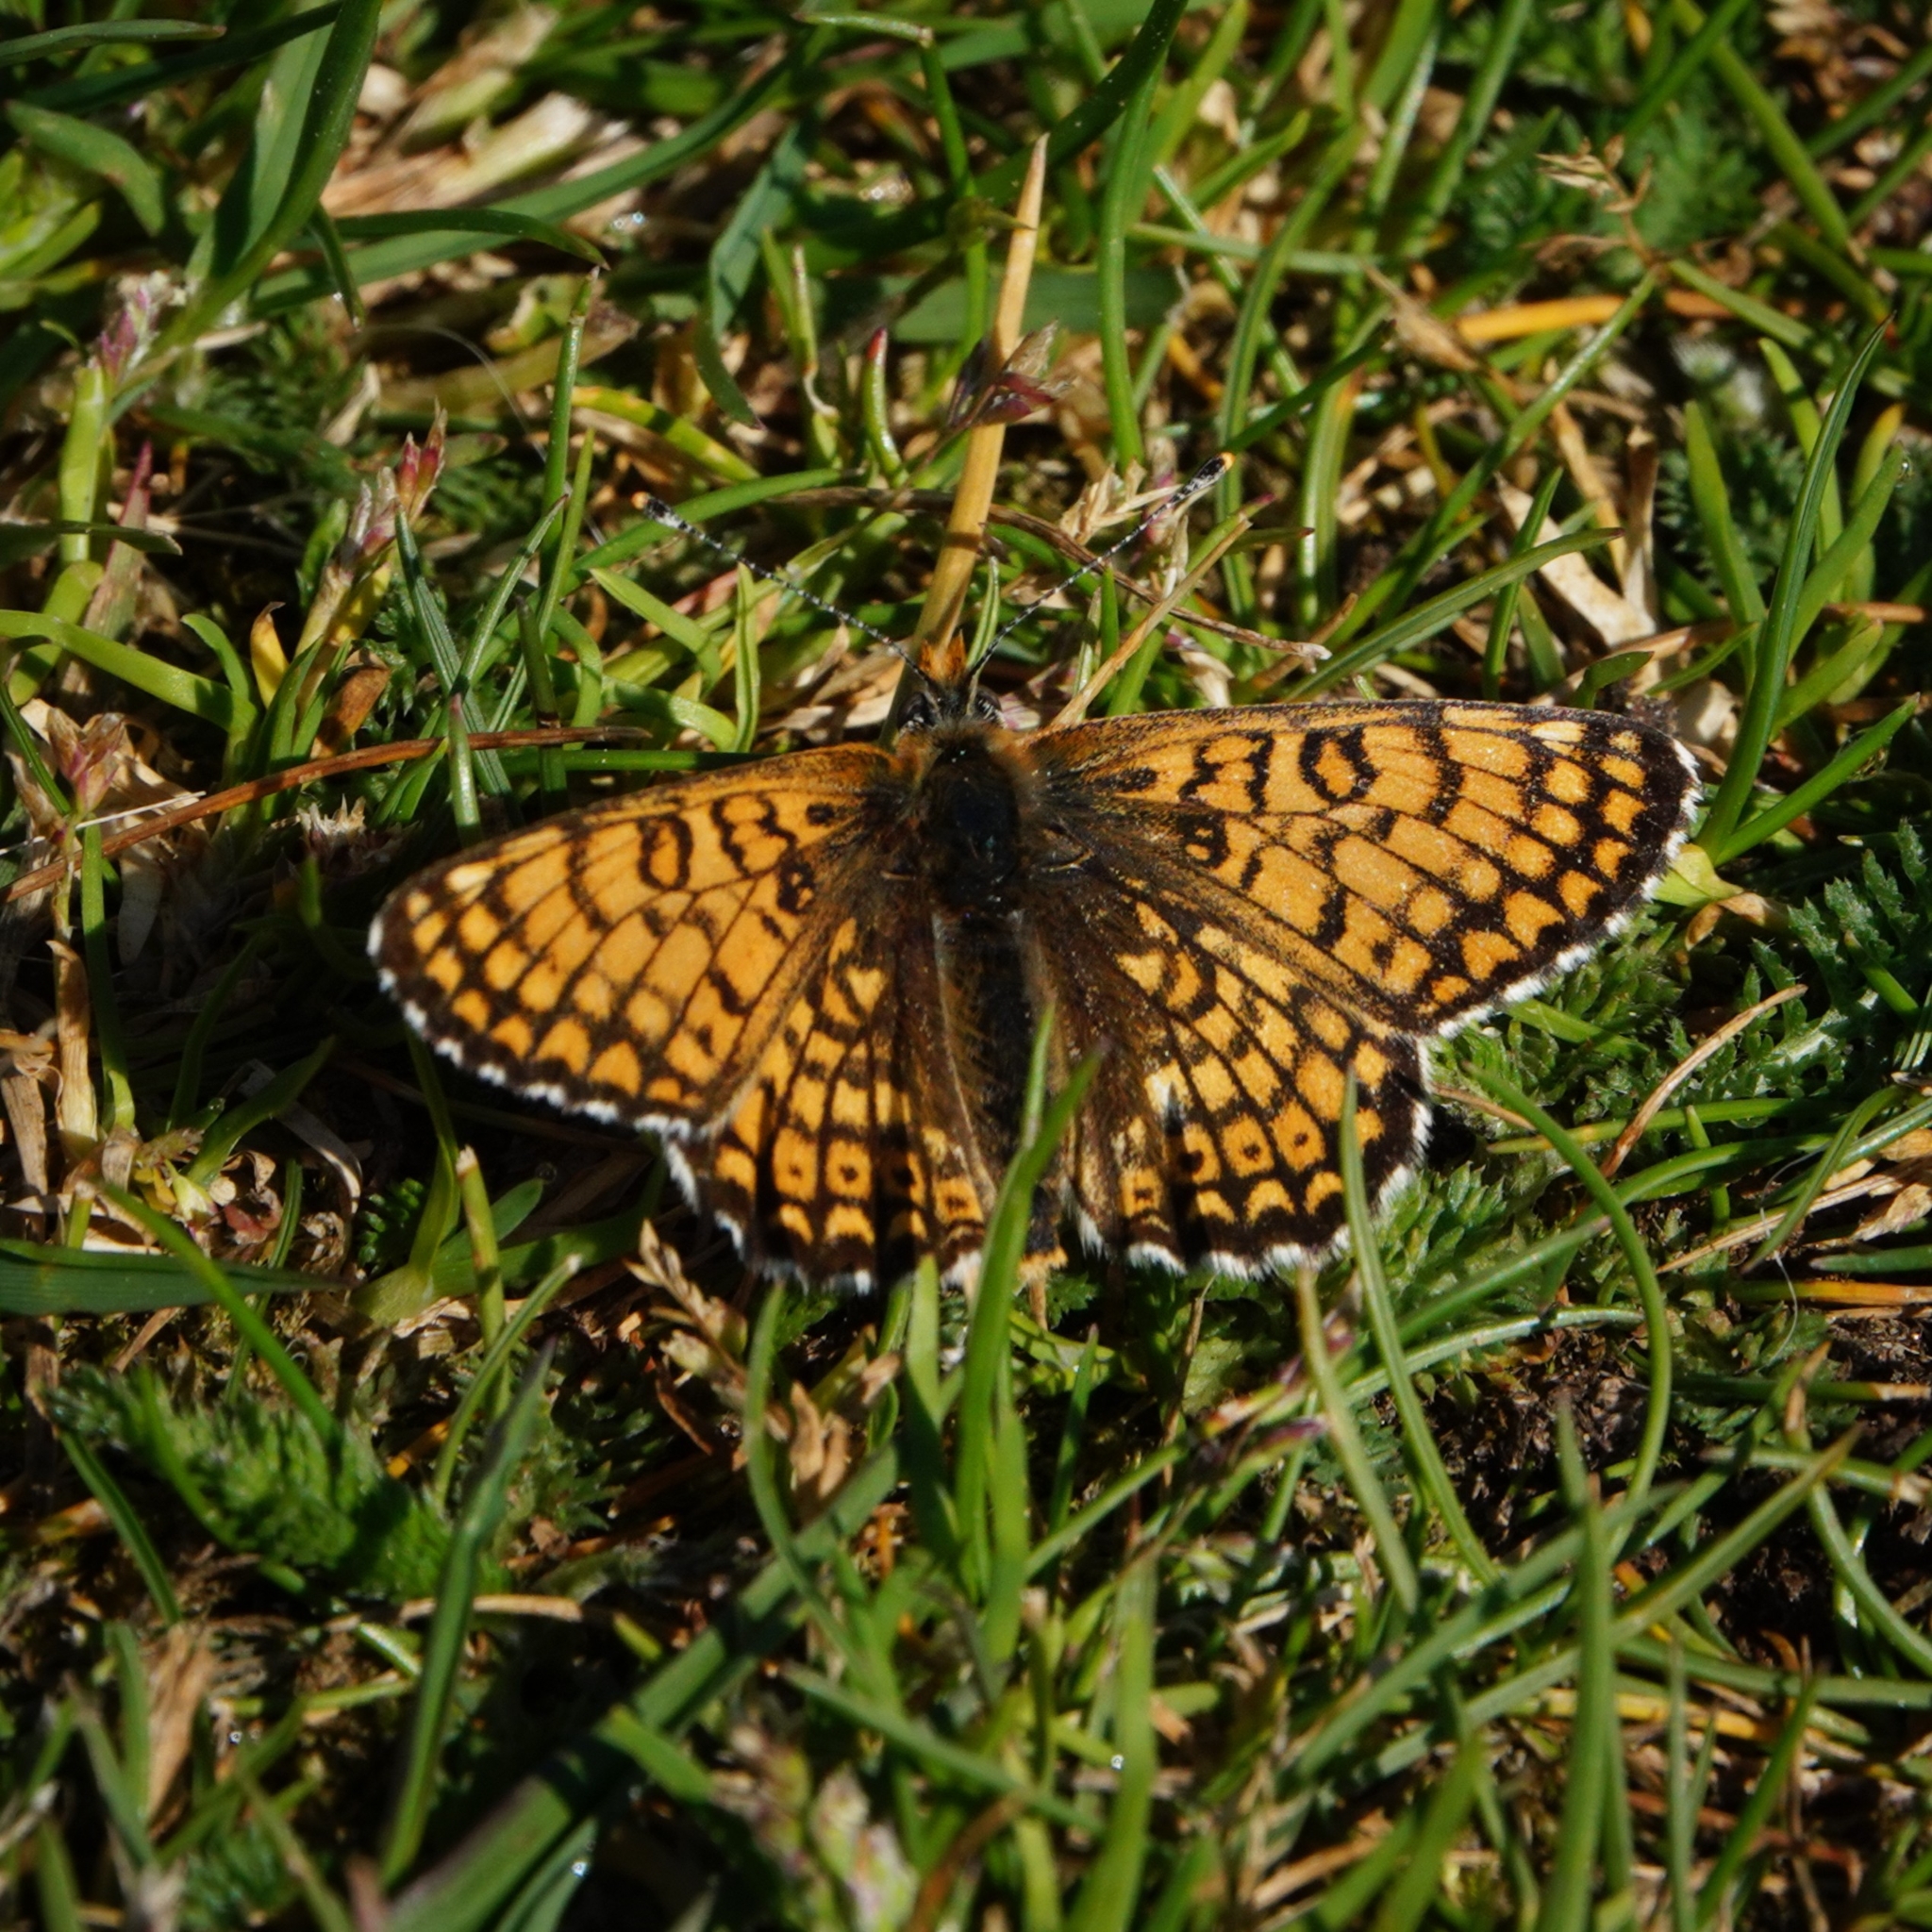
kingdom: Animalia
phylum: Arthropoda
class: Insecta
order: Lepidoptera
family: Nymphalidae
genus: Melitaea
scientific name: Melitaea cinxia
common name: Glanville fritillary
